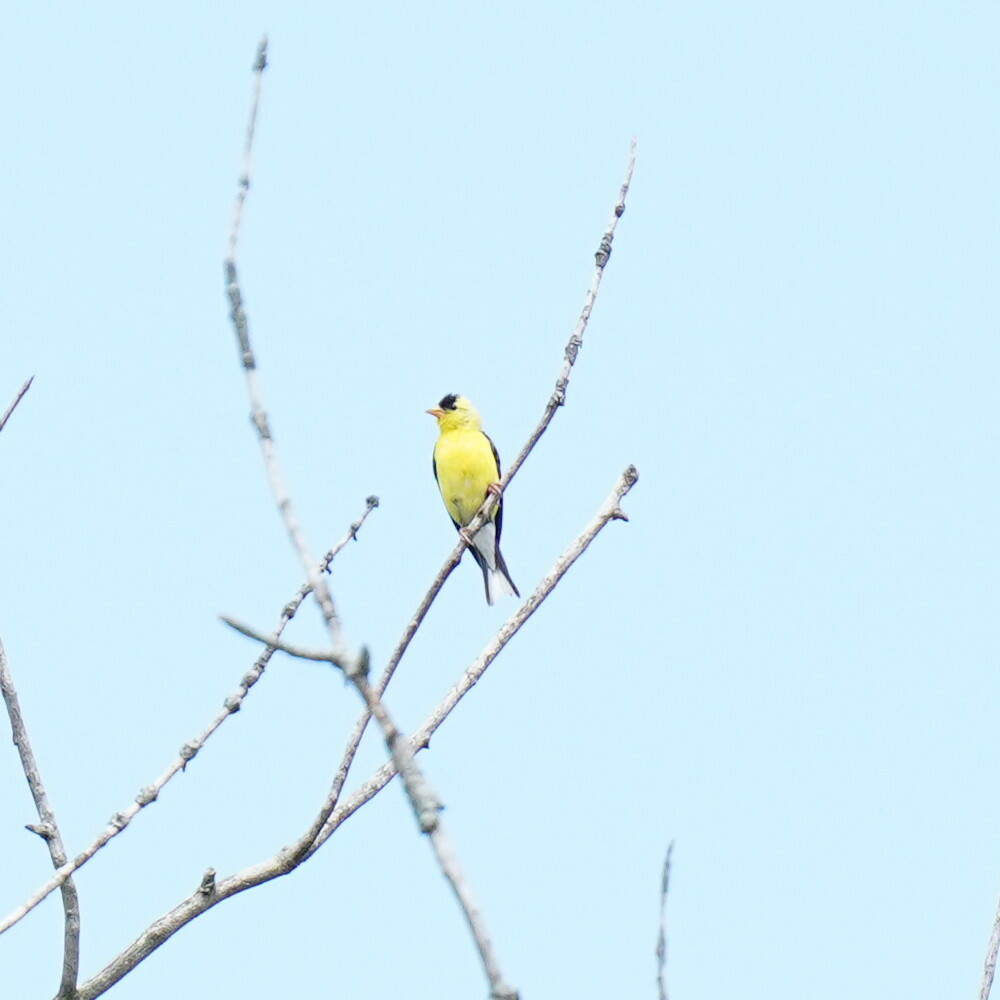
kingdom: Animalia
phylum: Chordata
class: Aves
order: Passeriformes
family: Fringillidae
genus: Spinus
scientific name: Spinus tristis
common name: American goldfinch
